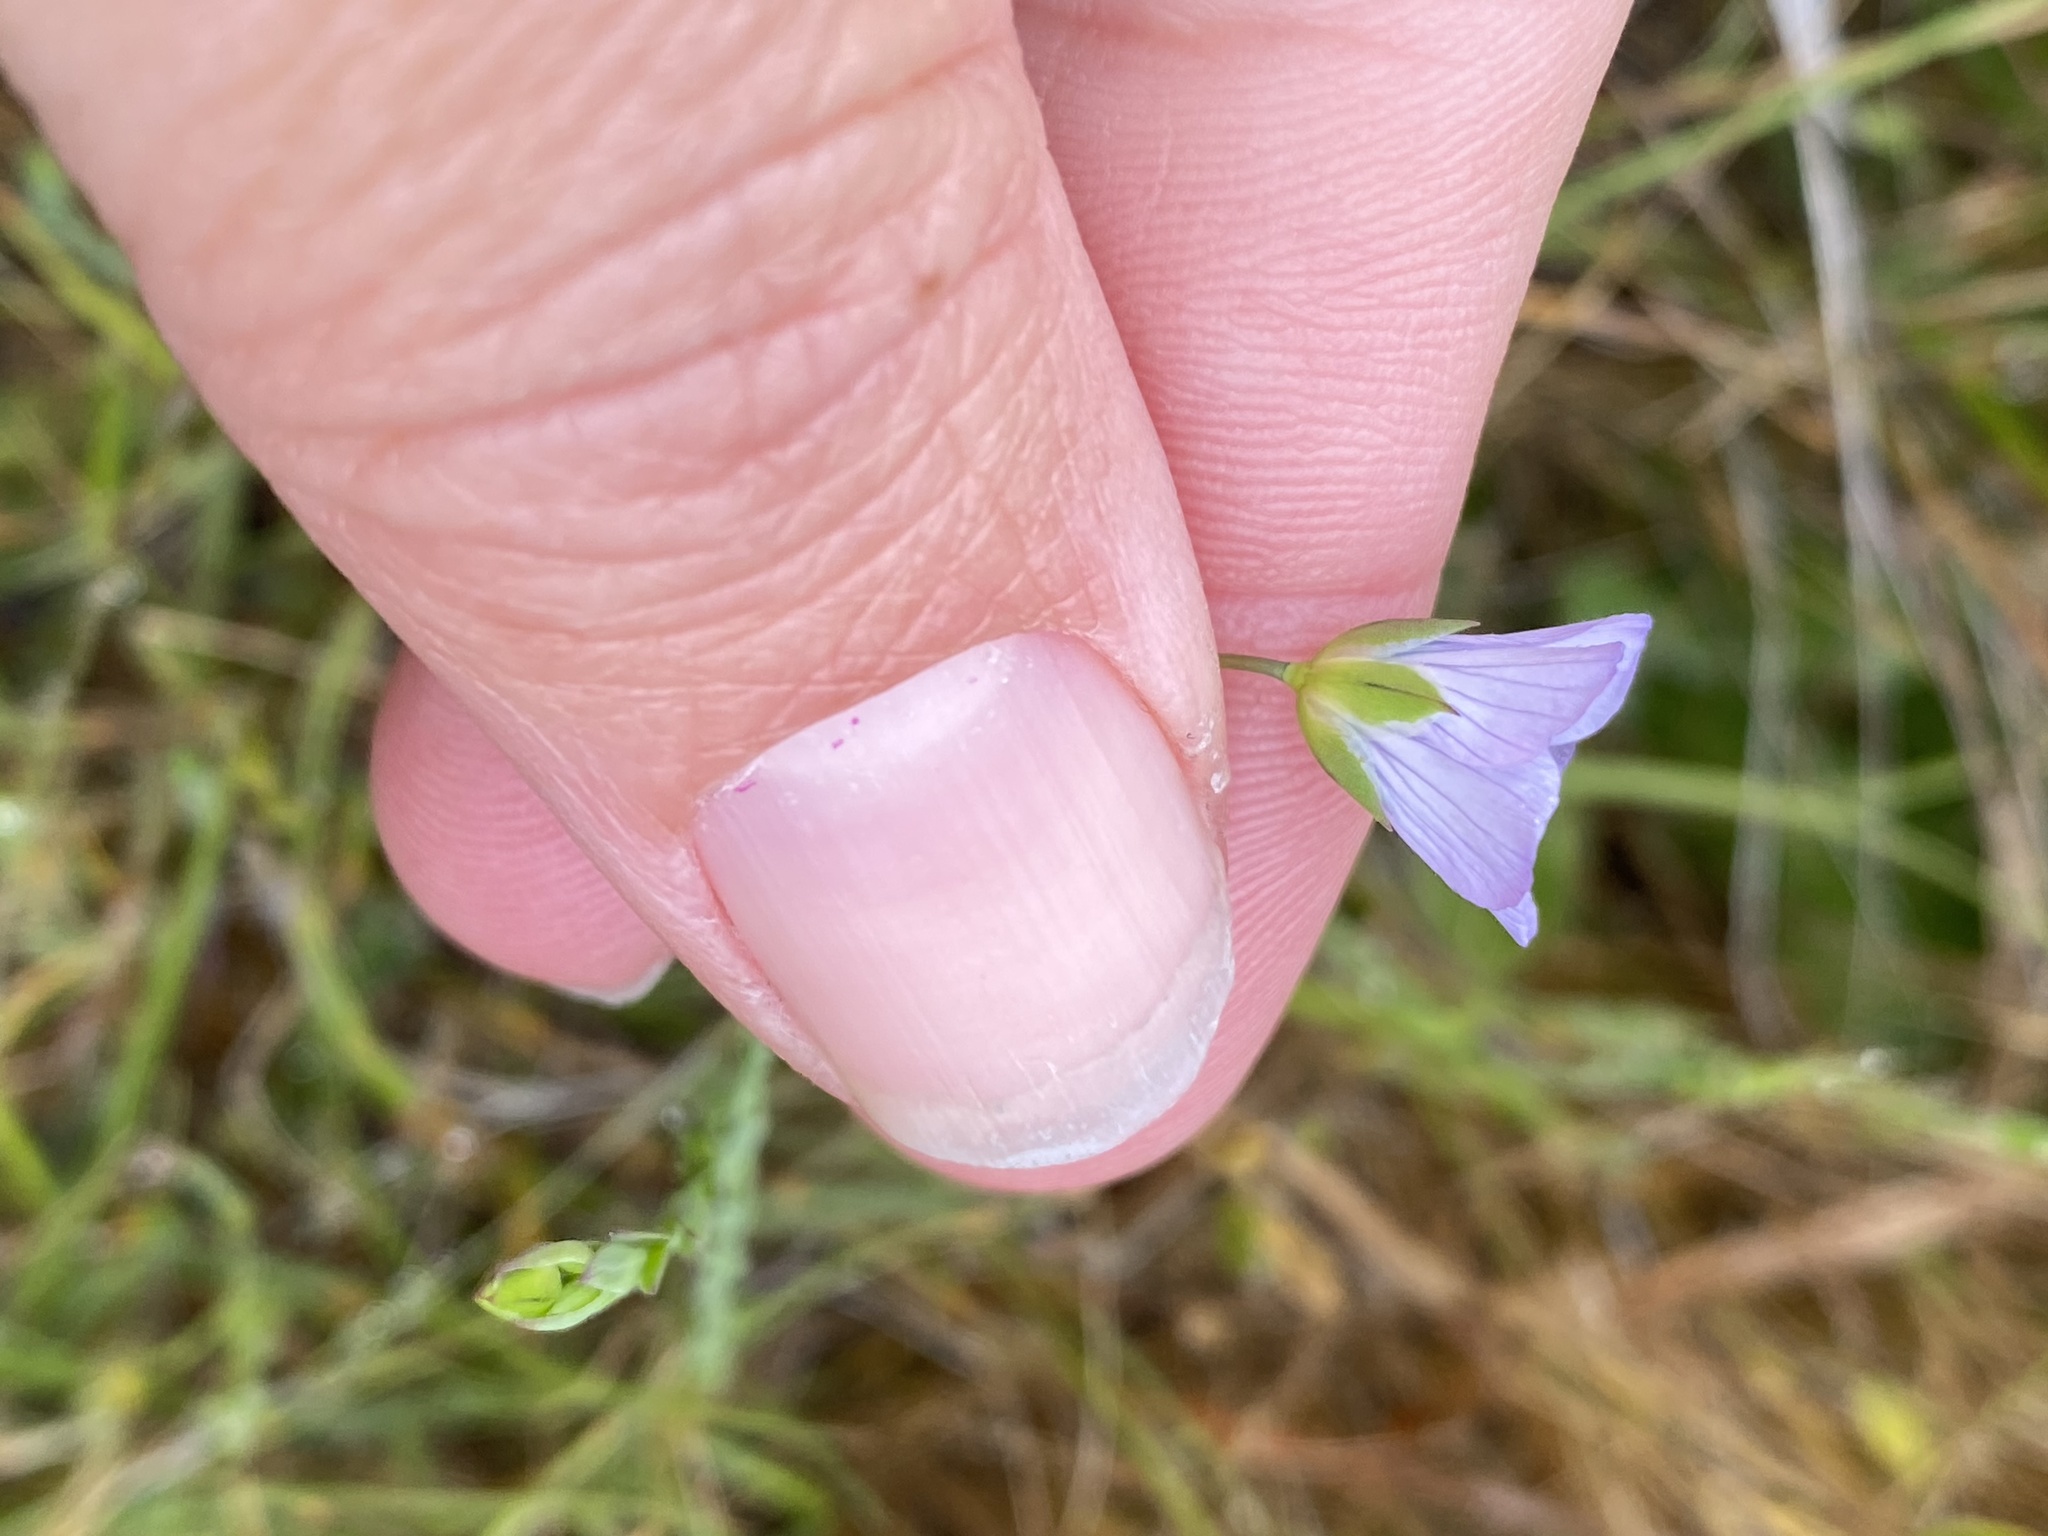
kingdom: Plantae
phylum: Tracheophyta
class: Magnoliopsida
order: Malpighiales
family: Linaceae
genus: Linum
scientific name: Linum bienne
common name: Pale flax
